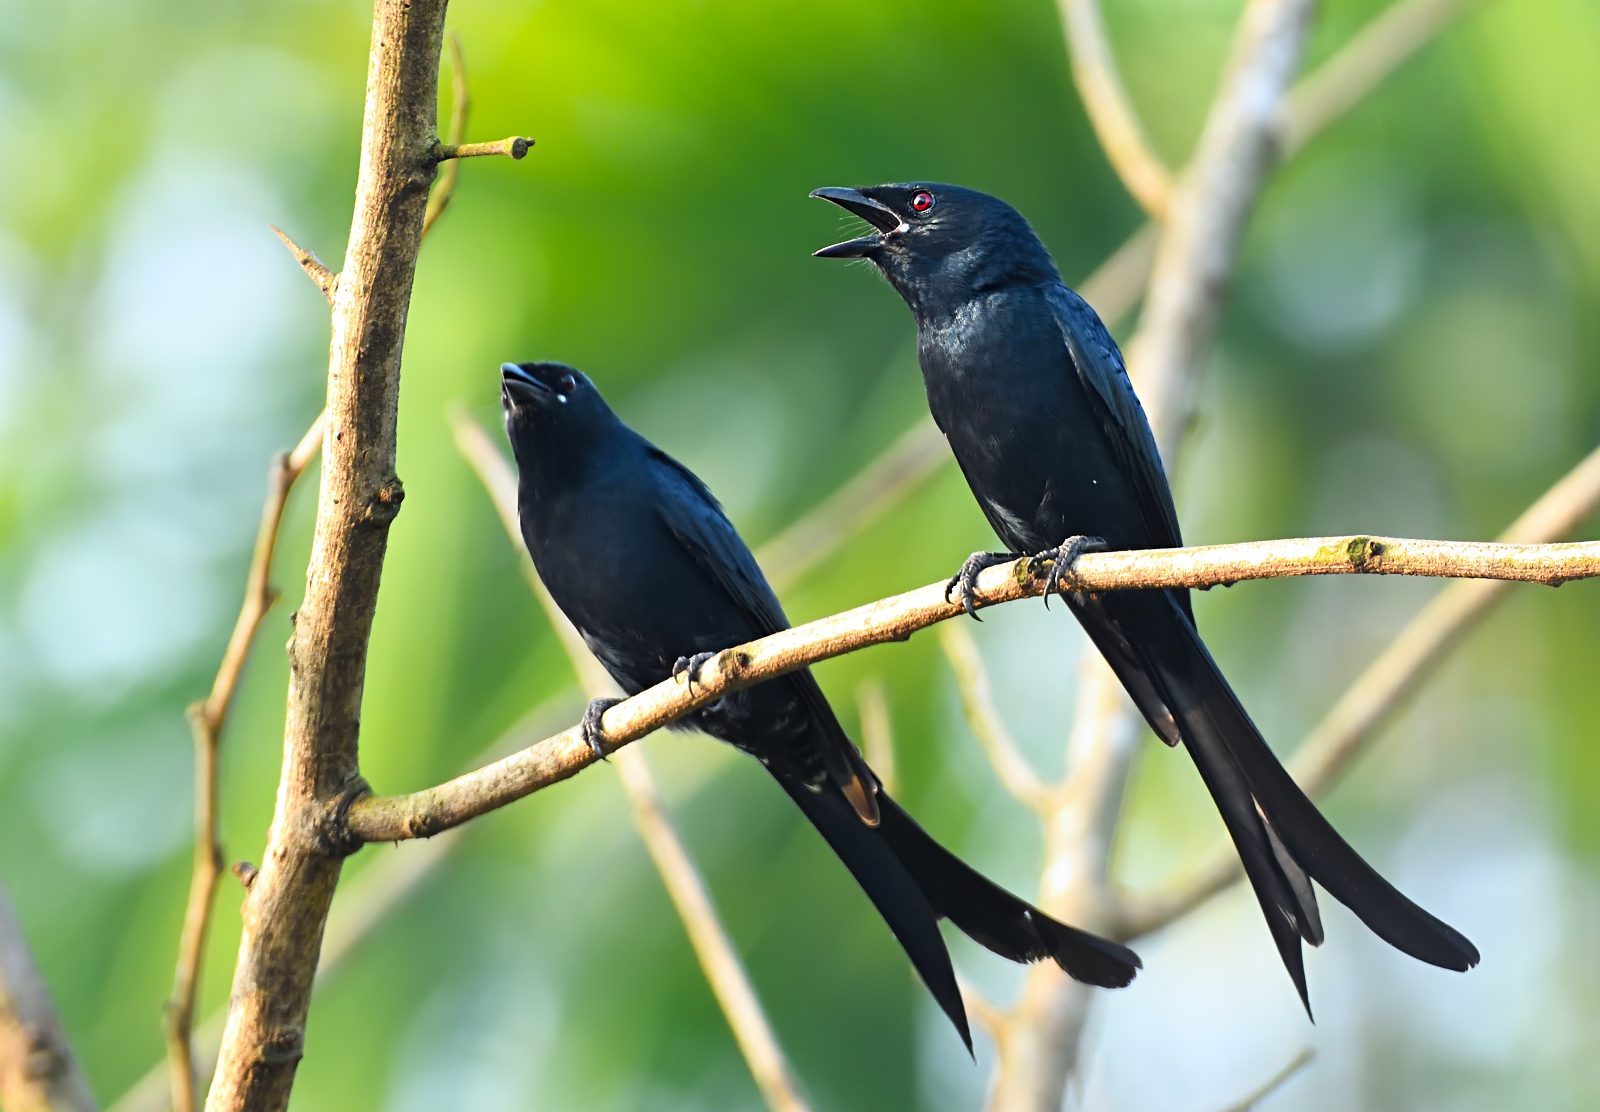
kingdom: Animalia
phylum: Chordata
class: Aves
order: Passeriformes
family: Dicruridae
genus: Dicrurus
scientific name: Dicrurus macrocercus
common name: Black drongo
